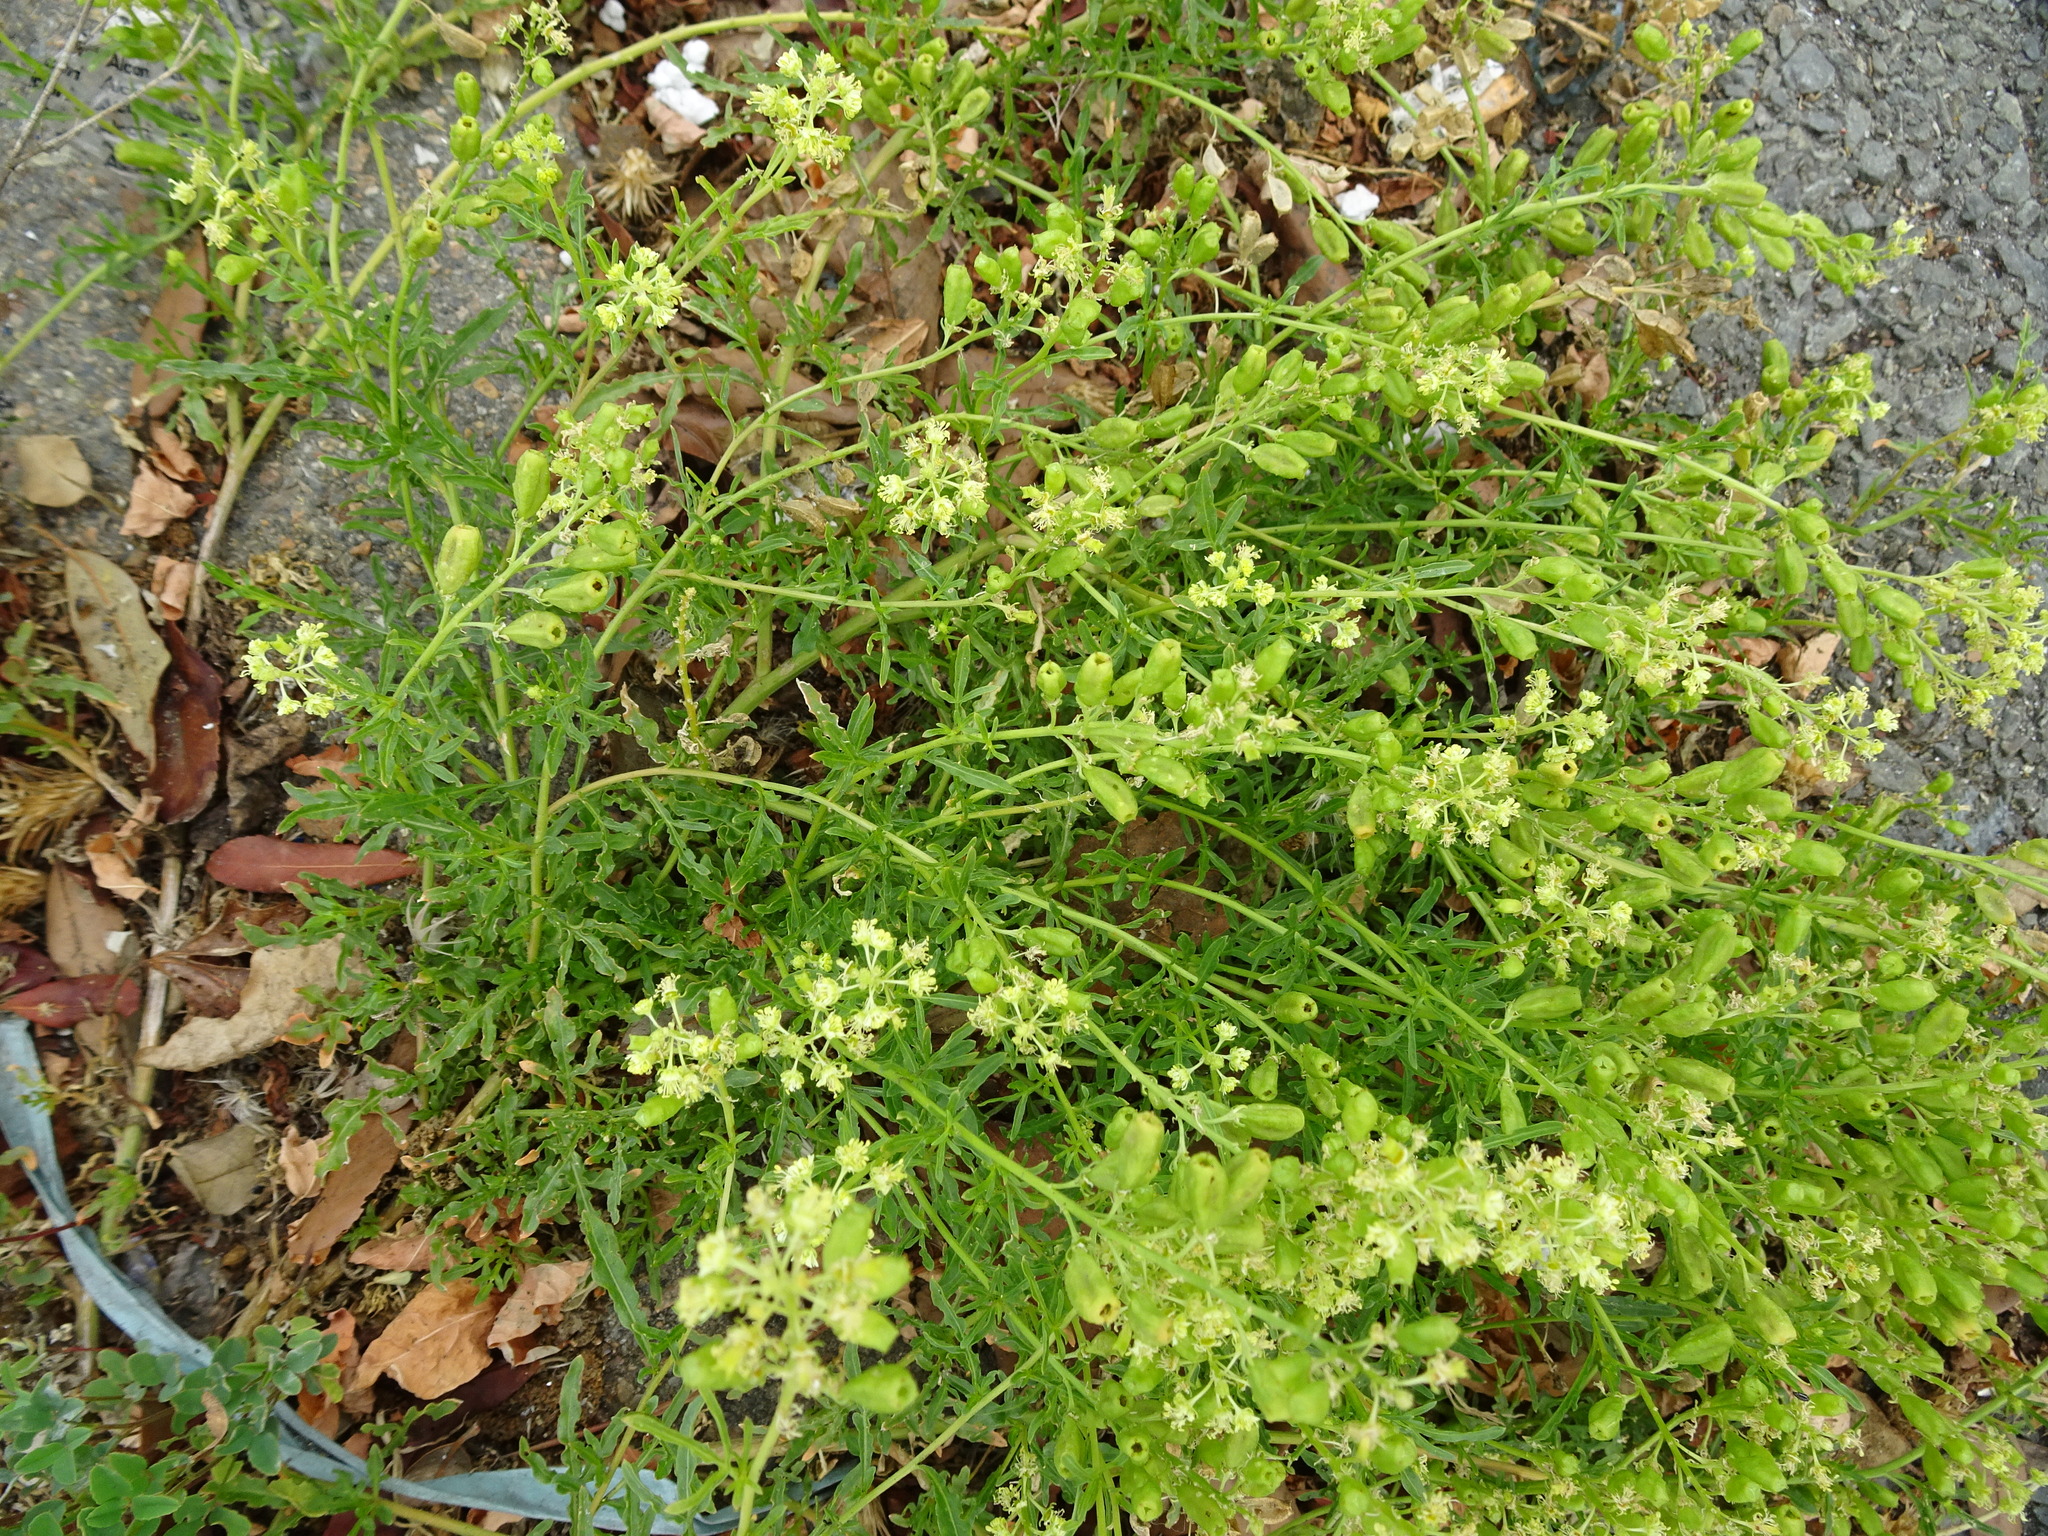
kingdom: Plantae
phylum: Tracheophyta
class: Magnoliopsida
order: Brassicales
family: Resedaceae
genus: Reseda
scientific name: Reseda lutea
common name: Wild mignonette
